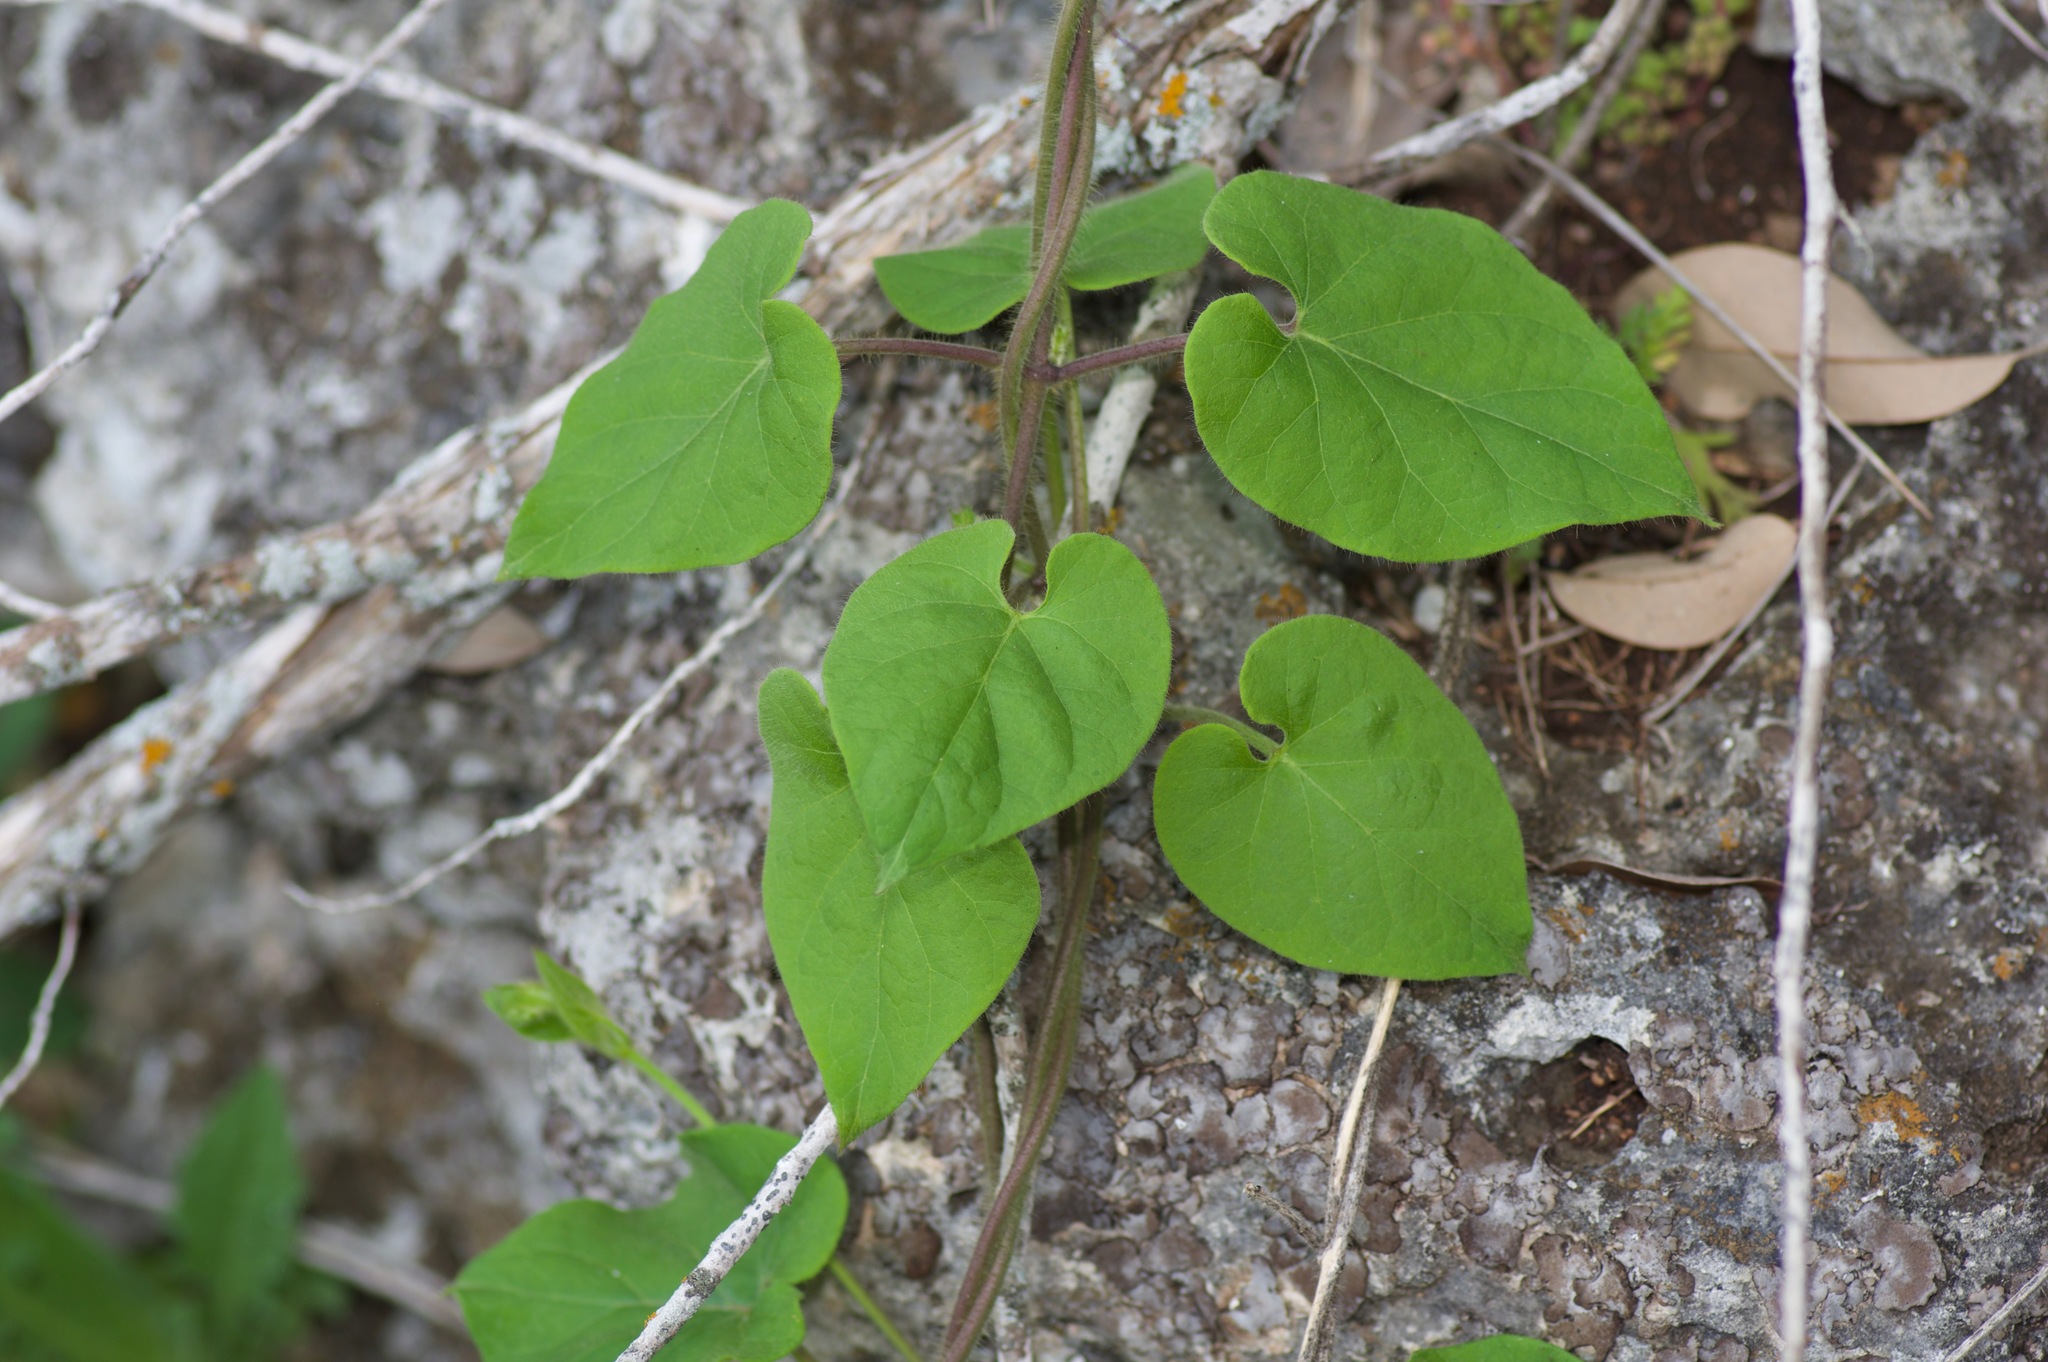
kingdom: Plantae
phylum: Tracheophyta
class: Magnoliopsida
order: Gentianales
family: Apocynaceae
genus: Dictyanthus
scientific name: Dictyanthus reticulatus
